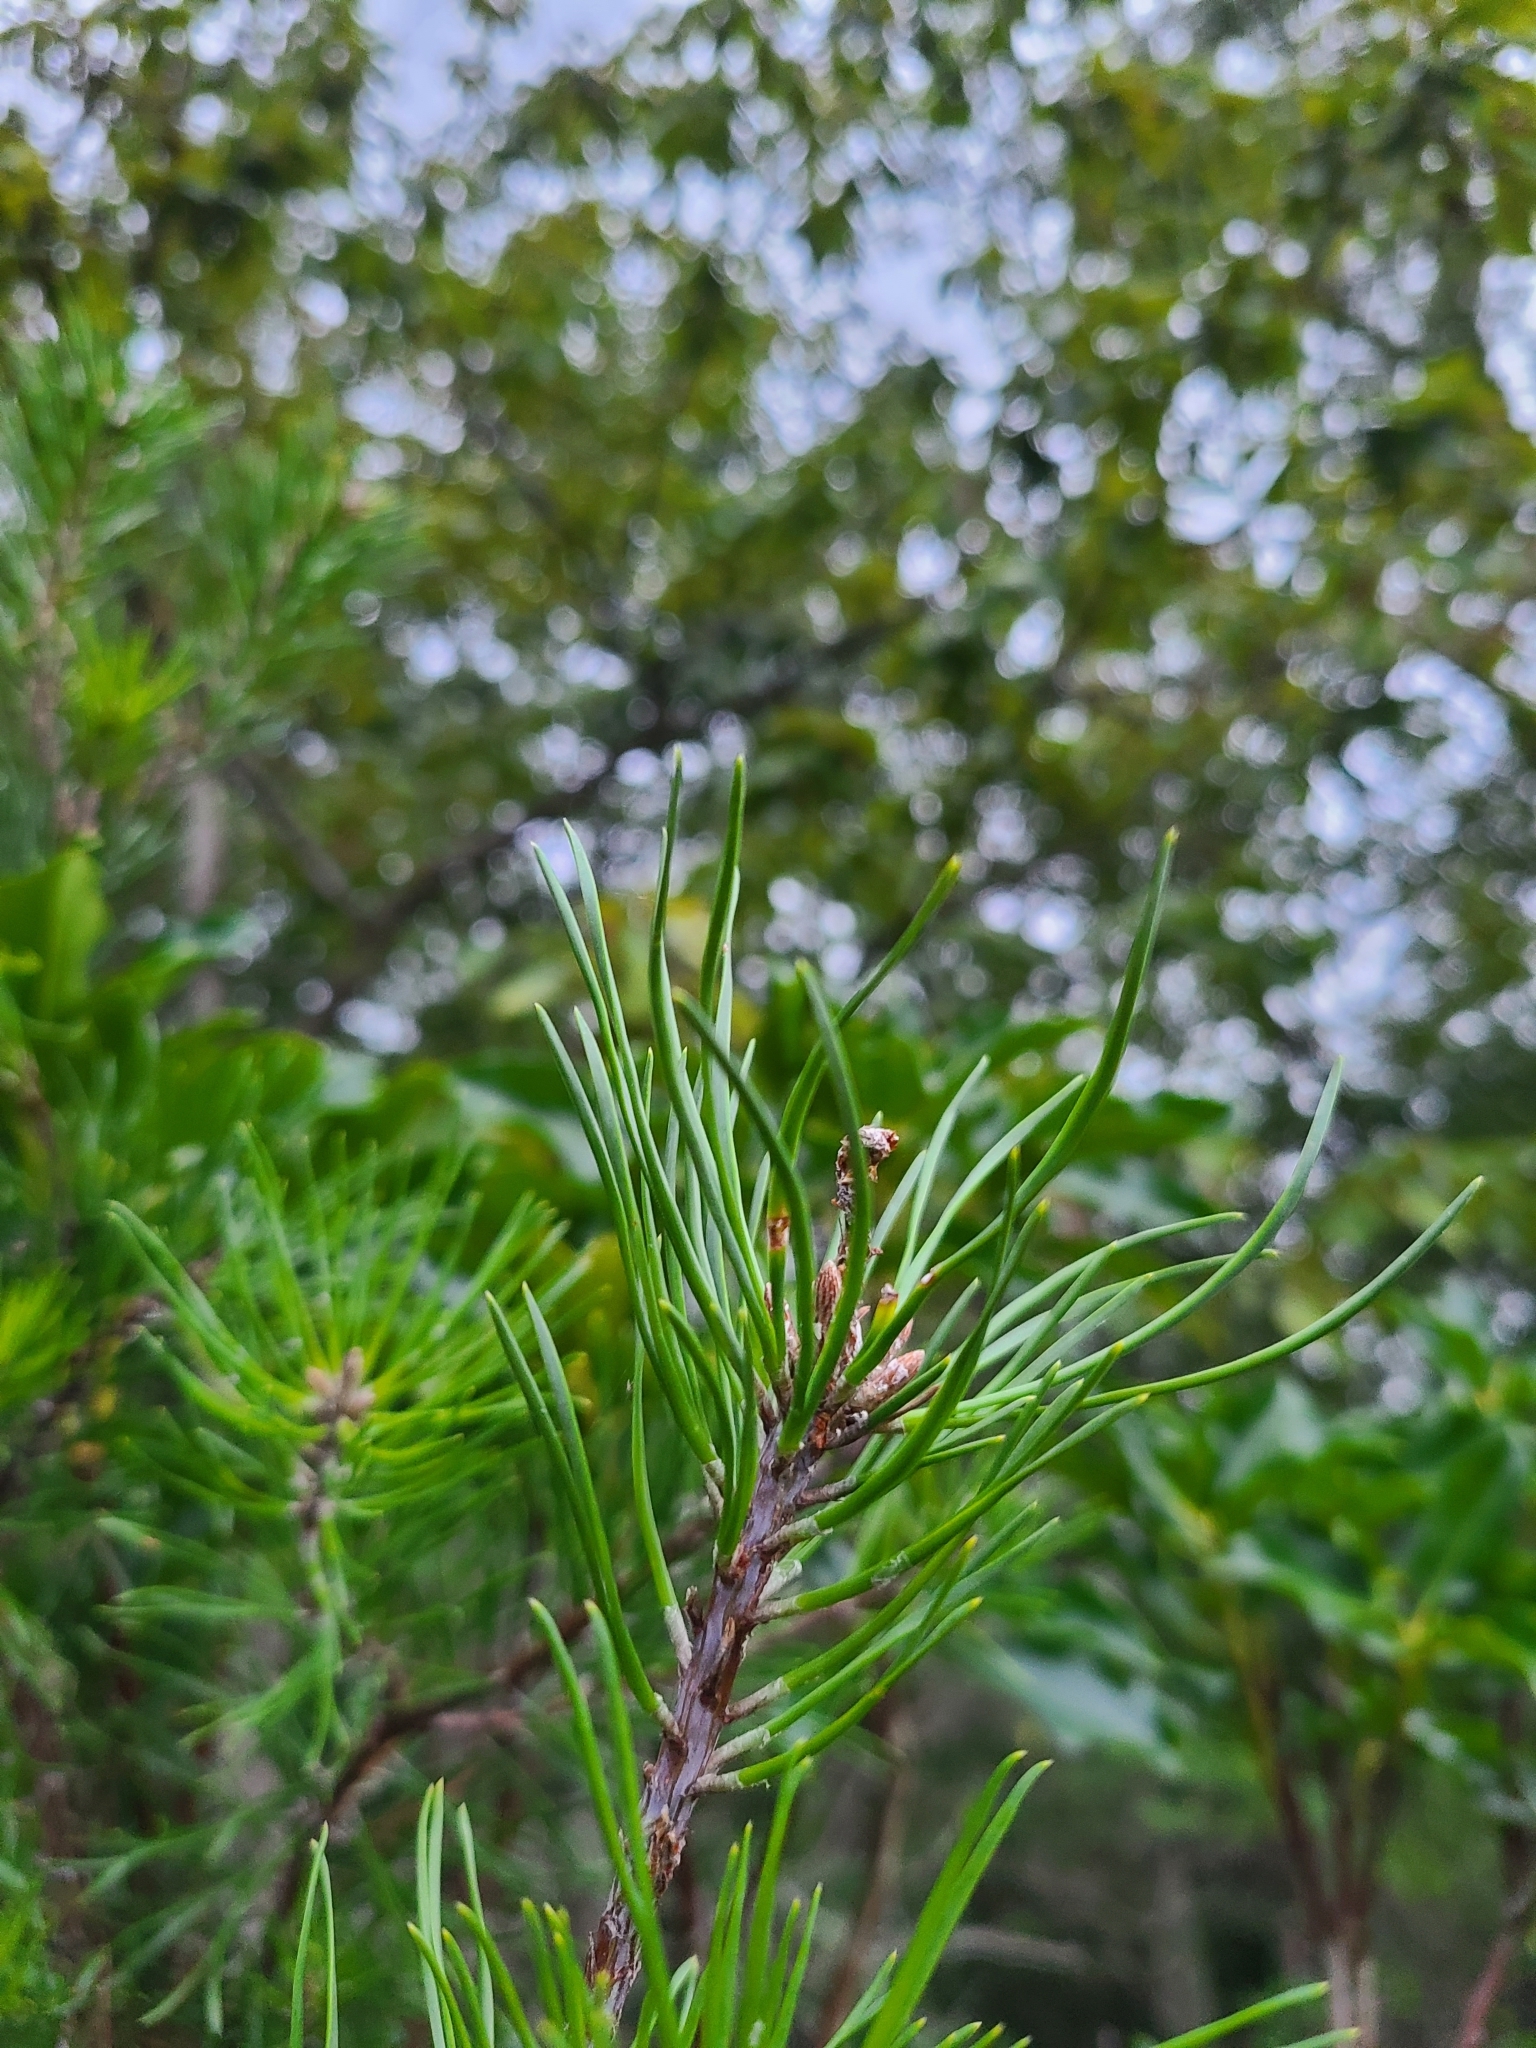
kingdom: Plantae
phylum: Tracheophyta
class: Pinopsida
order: Pinales
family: Pinaceae
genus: Pinus
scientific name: Pinus virginiana
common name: Scrub pine
